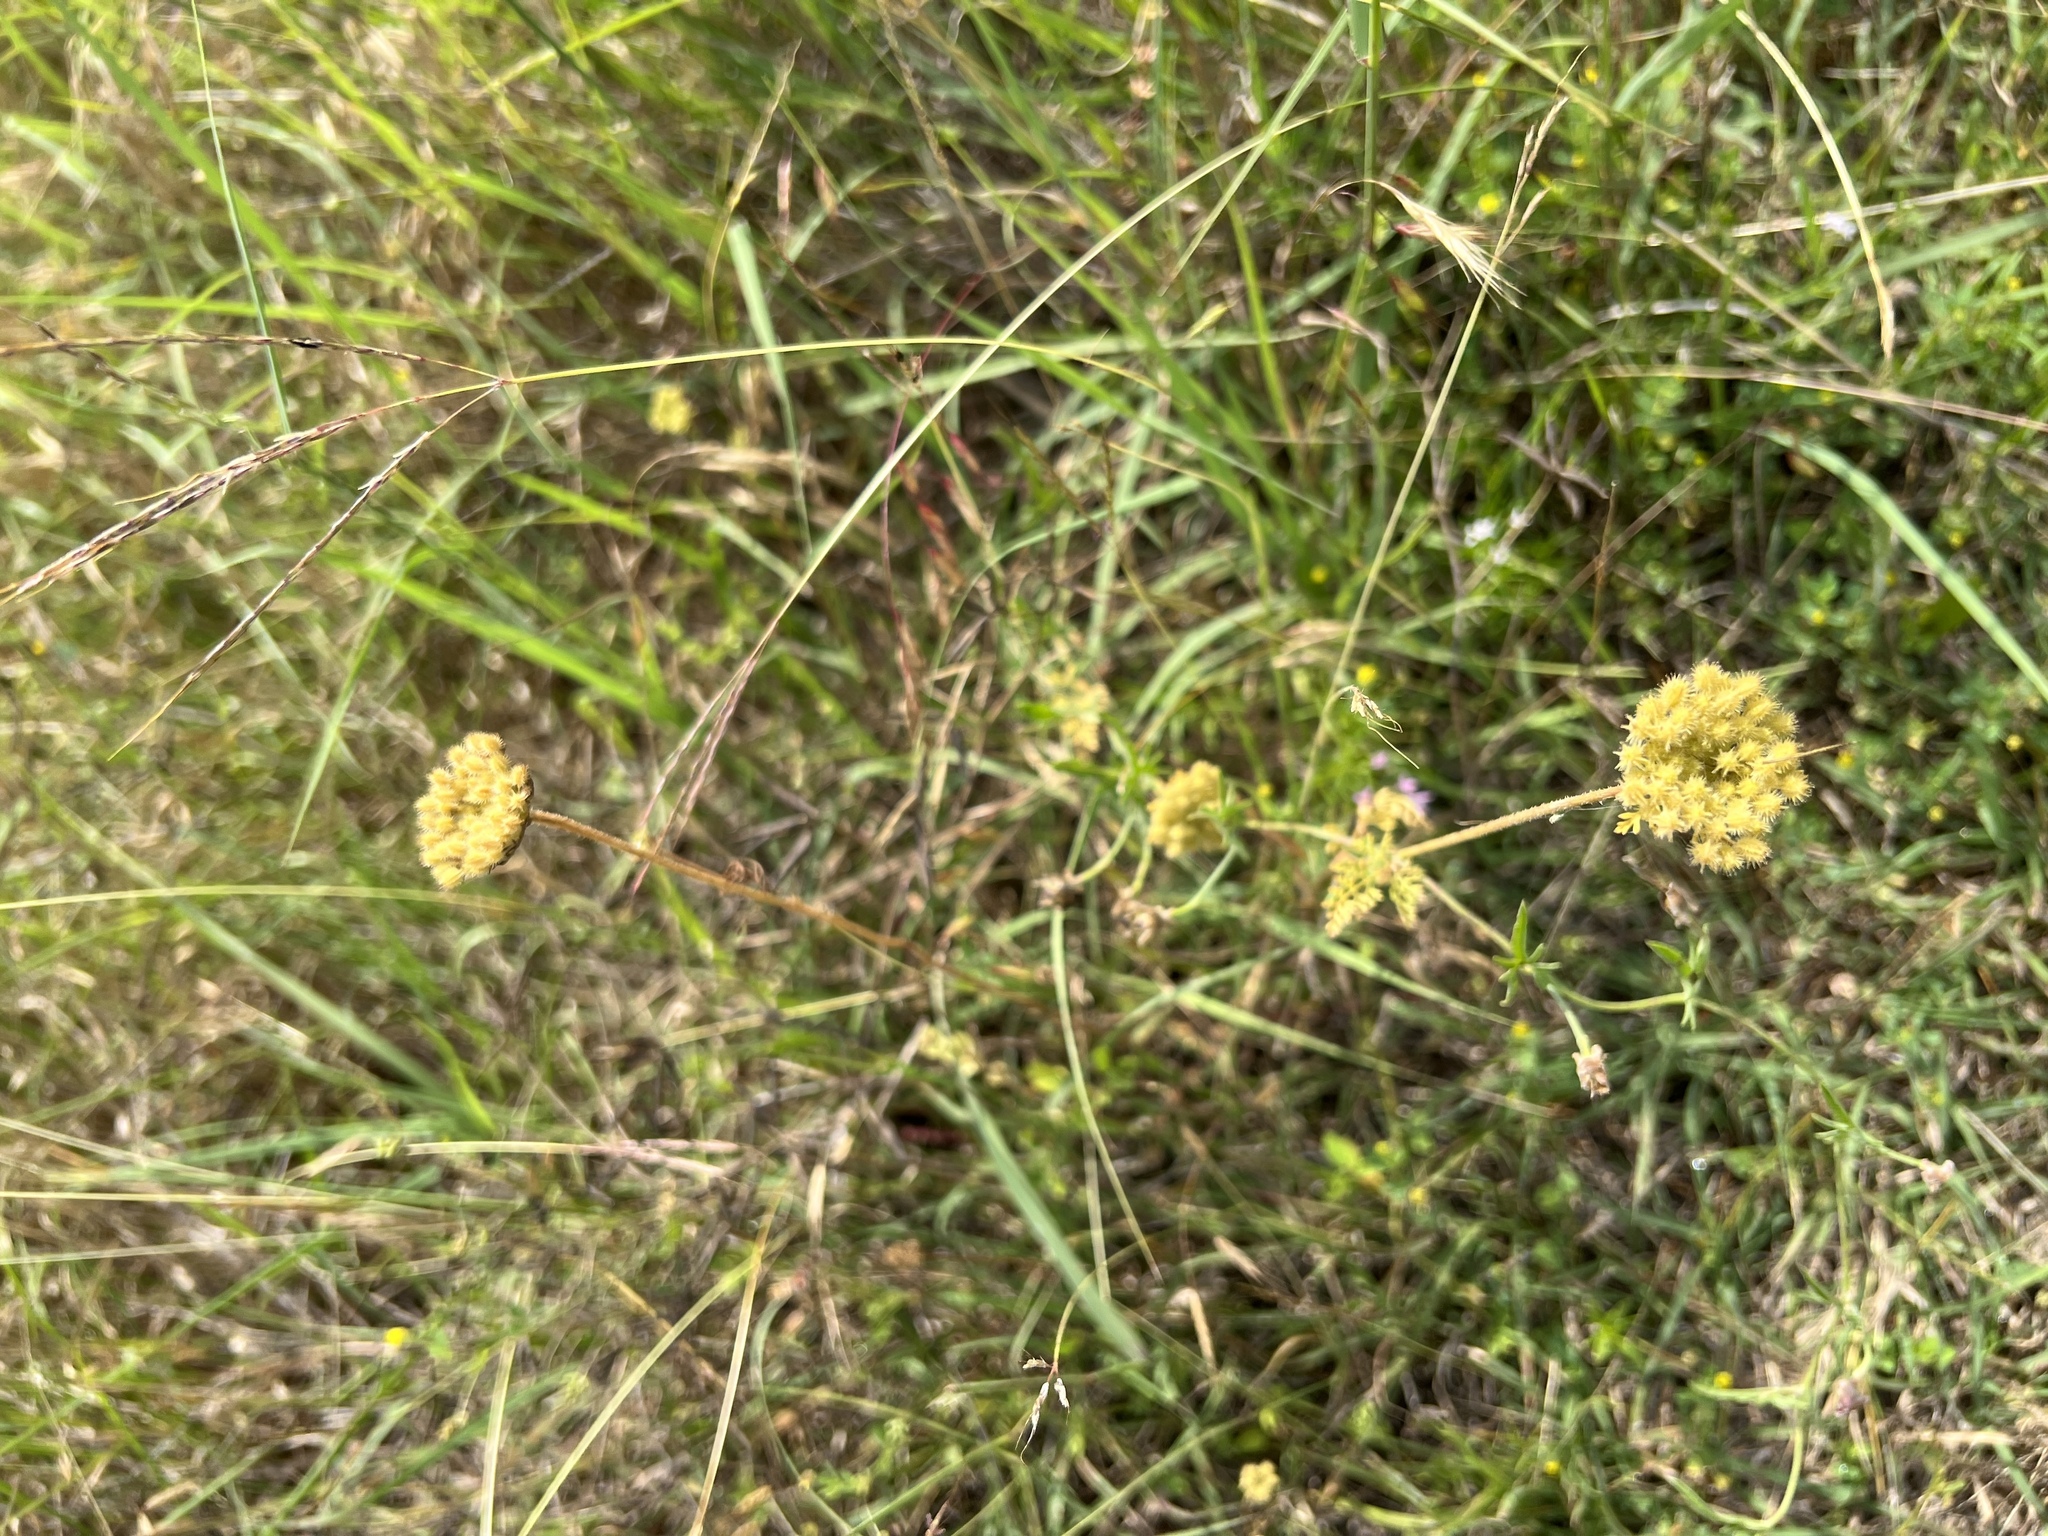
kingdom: Plantae
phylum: Tracheophyta
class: Magnoliopsida
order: Apiales
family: Apiaceae
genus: Daucus
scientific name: Daucus pusillus
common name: Southwest wild carrot
